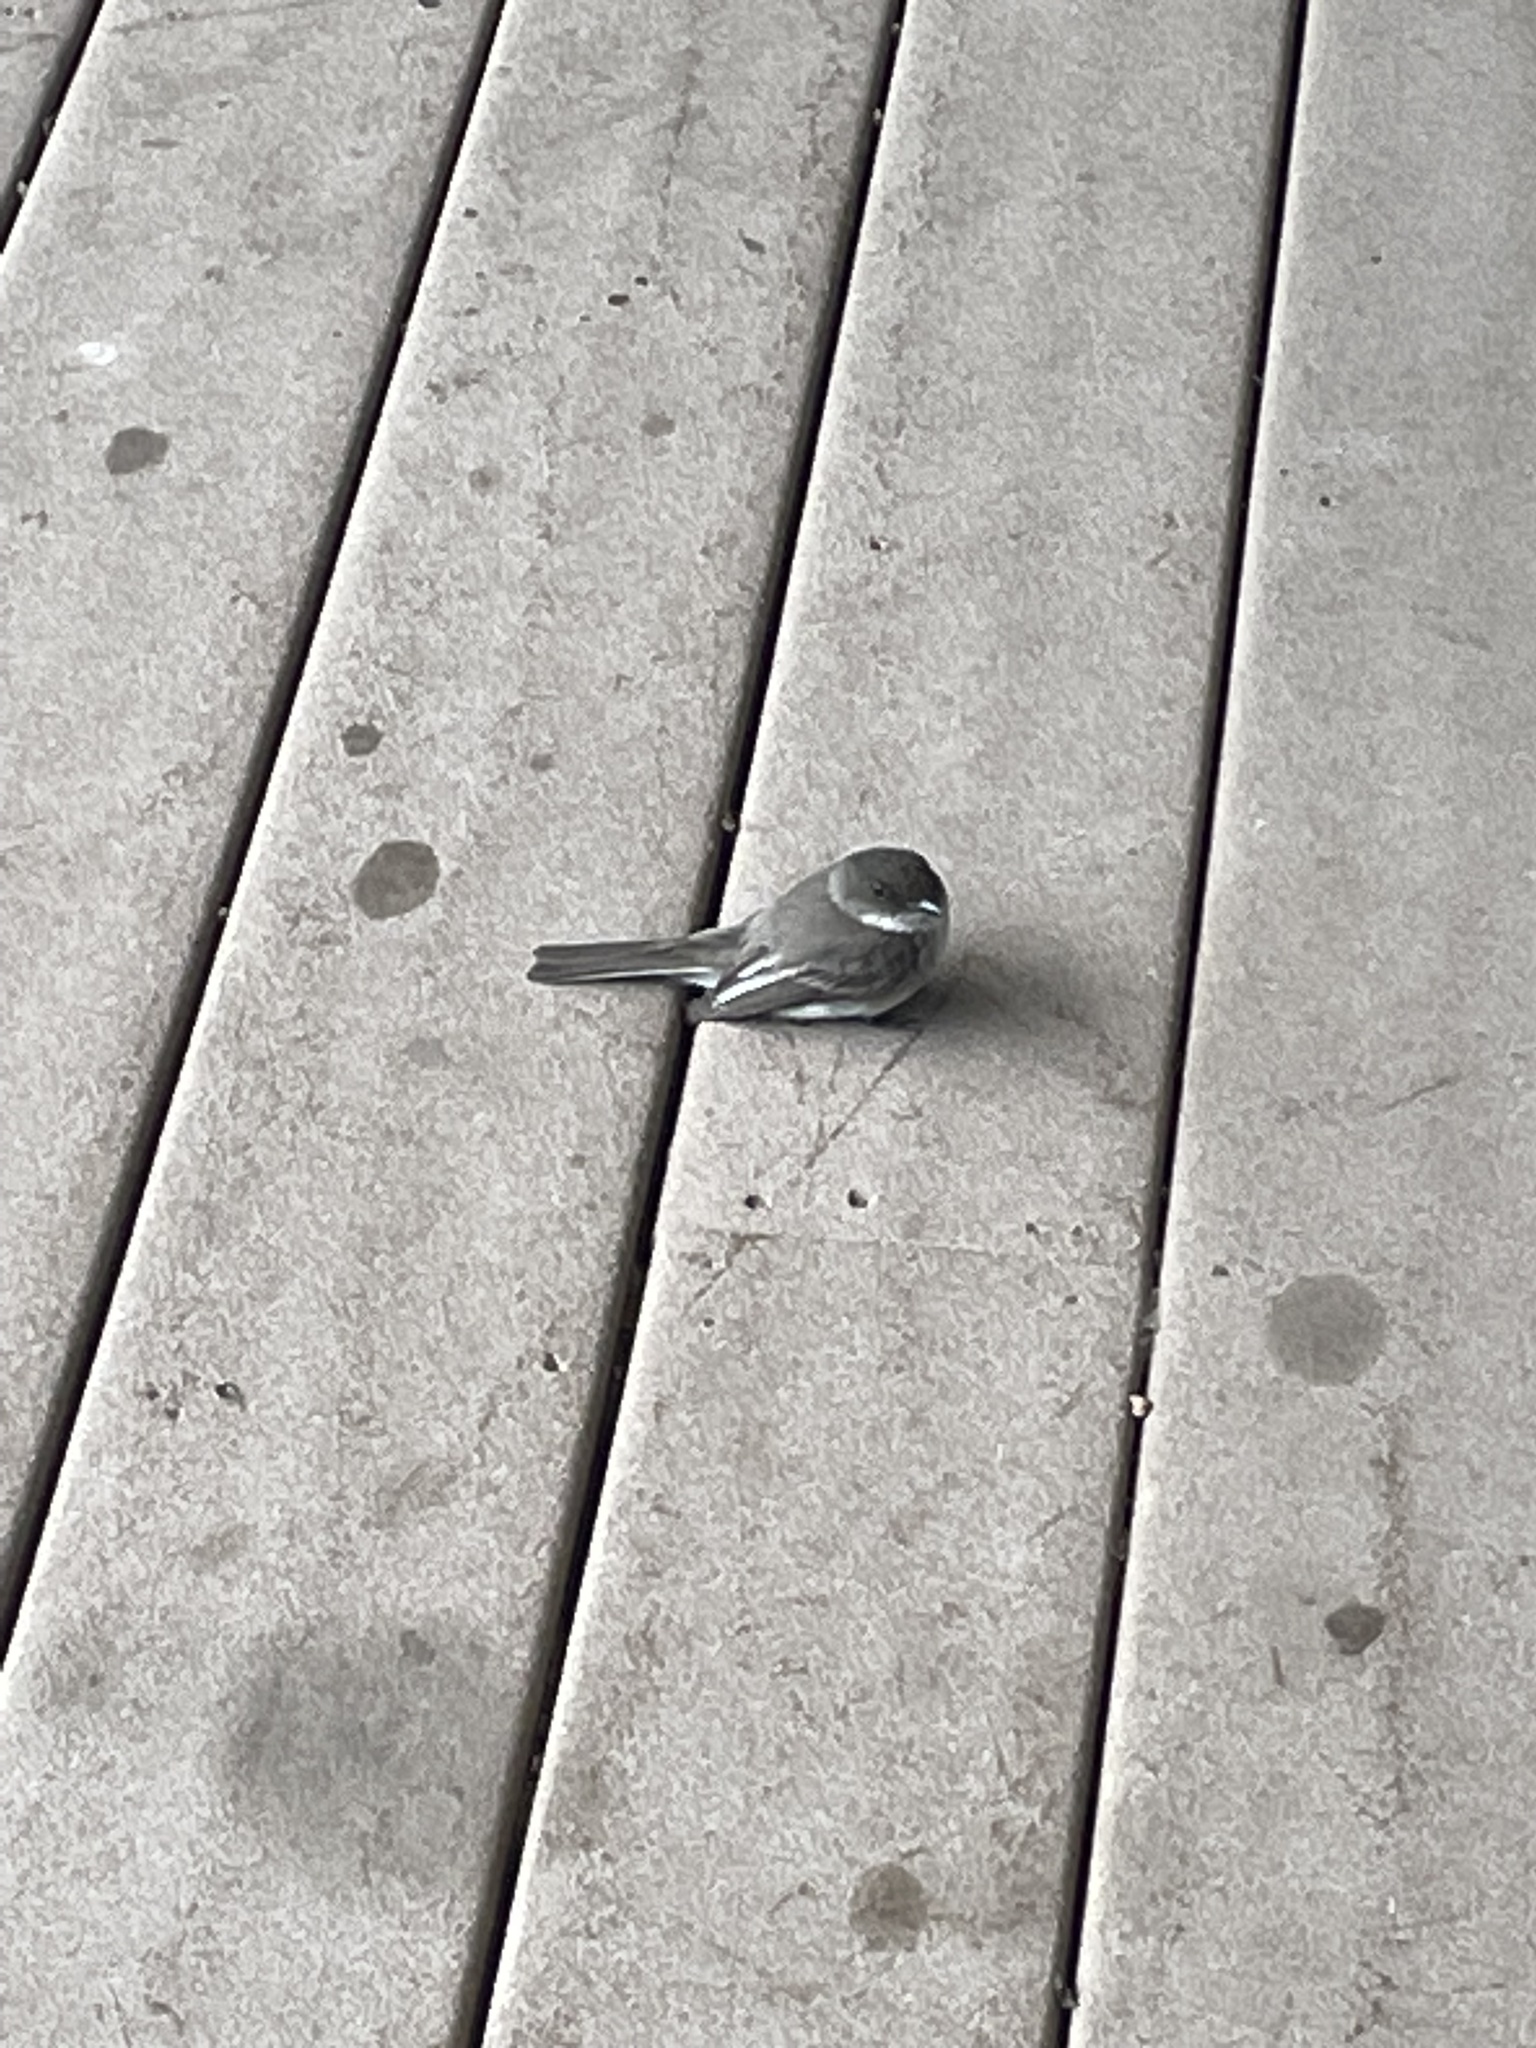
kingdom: Animalia
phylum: Chordata
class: Aves
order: Passeriformes
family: Tyrannidae
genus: Sayornis
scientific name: Sayornis phoebe
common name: Eastern phoebe
